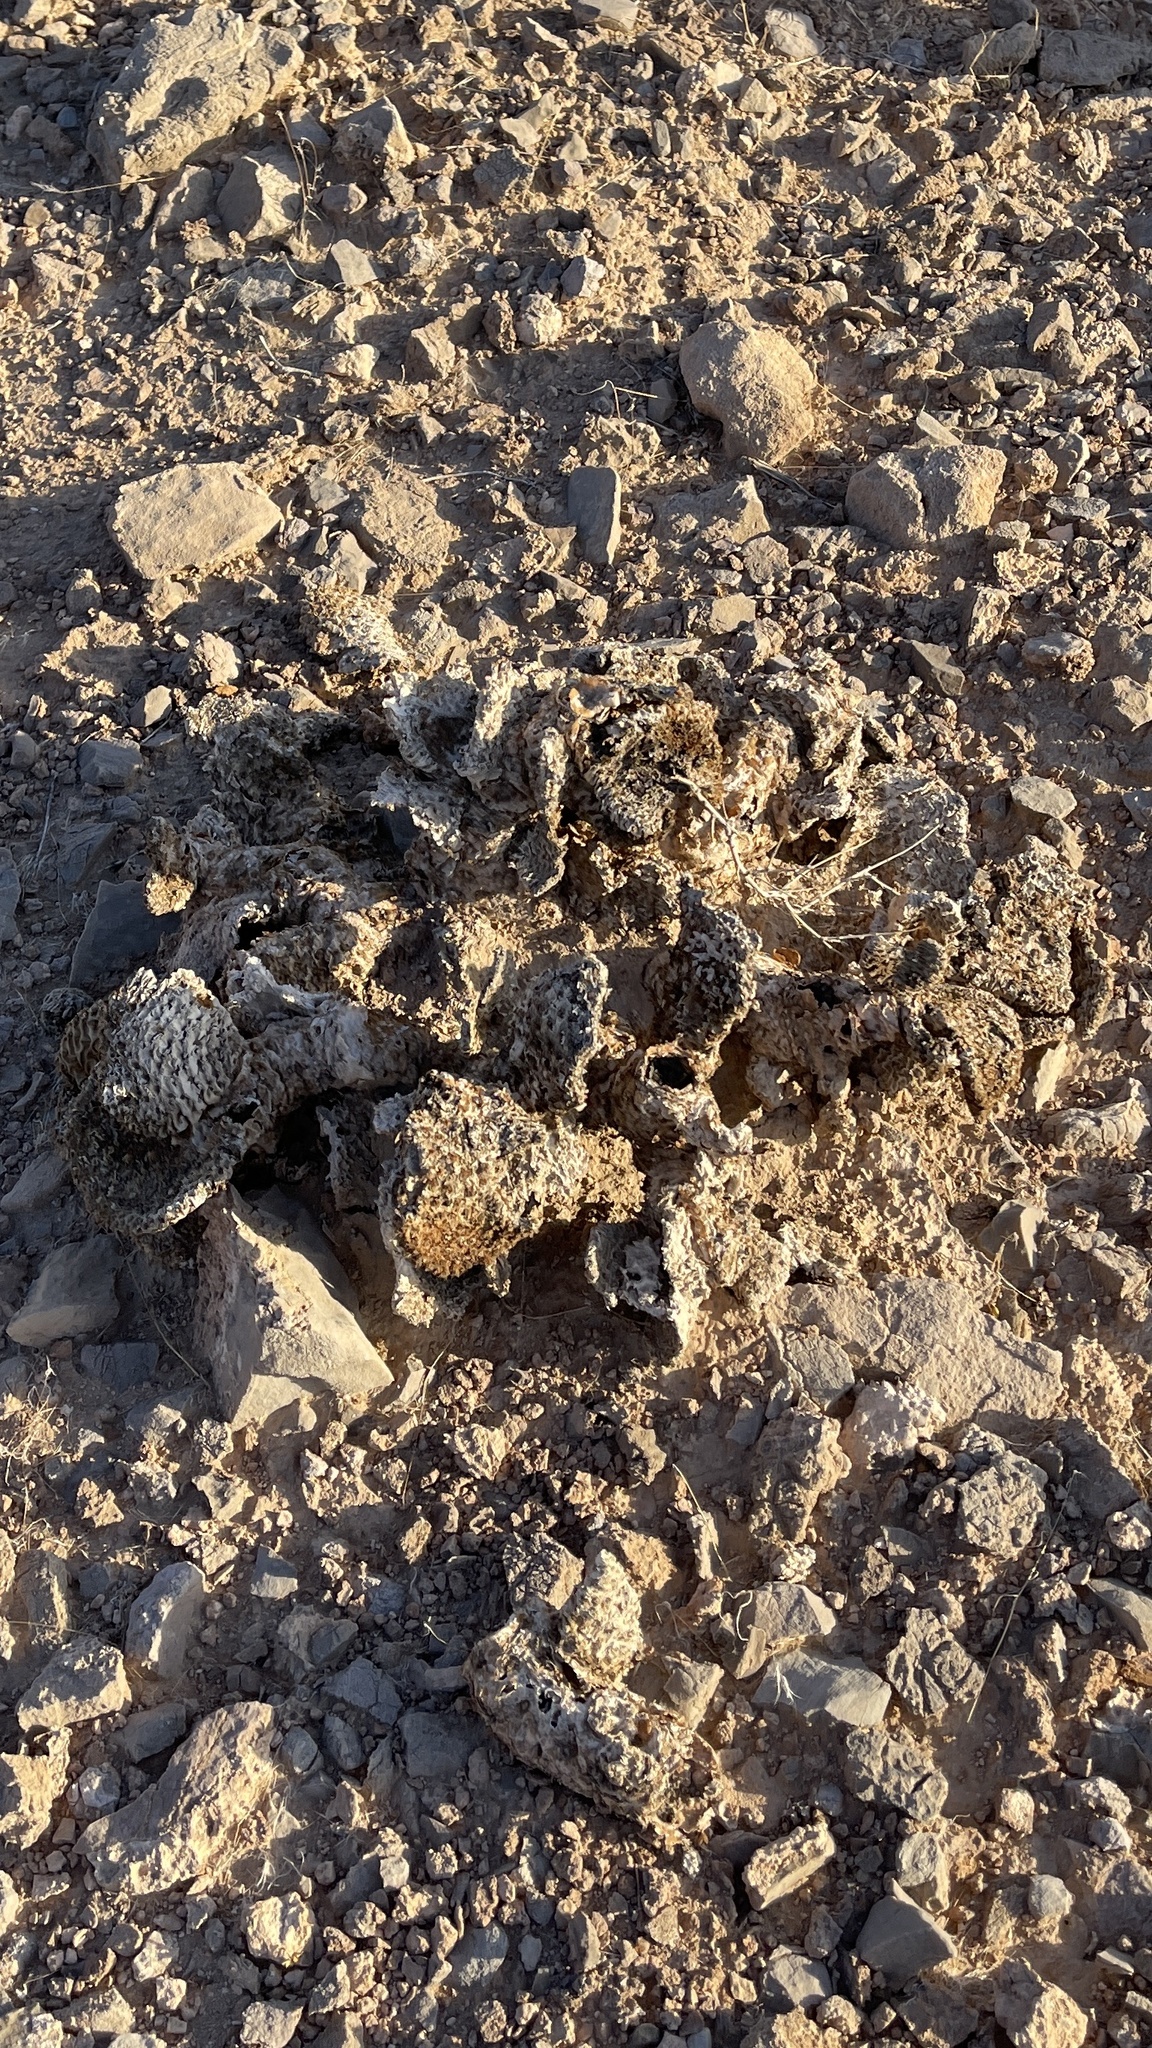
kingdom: Plantae
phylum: Tracheophyta
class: Magnoliopsida
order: Caryophyllales
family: Cactaceae
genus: Opuntia
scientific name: Opuntia basilaris
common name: Beavertail prickly-pear
